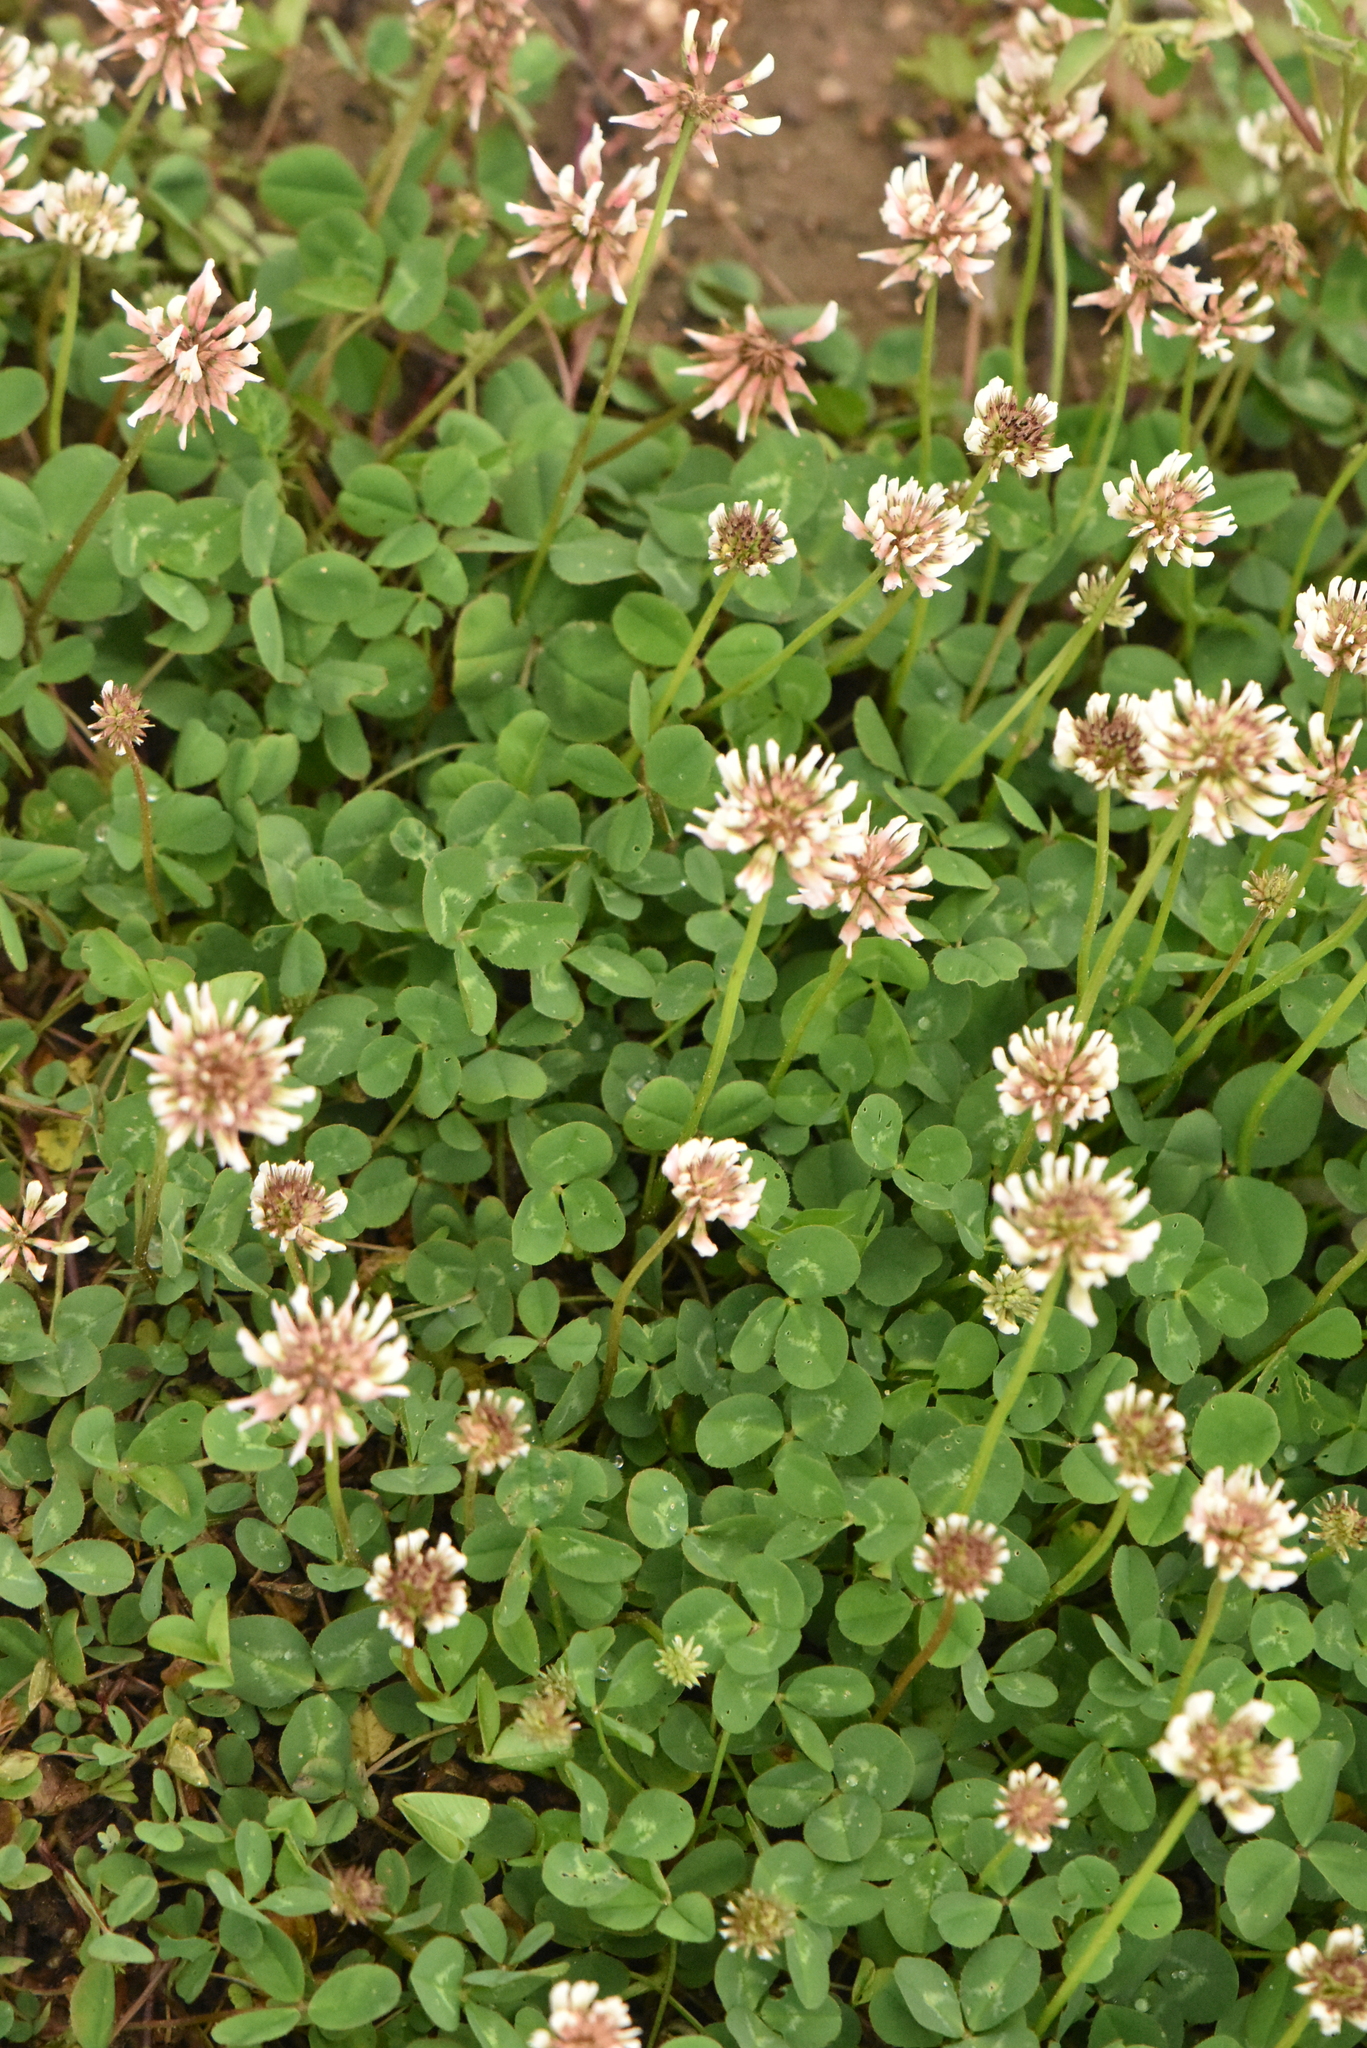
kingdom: Plantae
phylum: Tracheophyta
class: Magnoliopsida
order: Fabales
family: Fabaceae
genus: Trifolium
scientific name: Trifolium repens
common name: White clover
